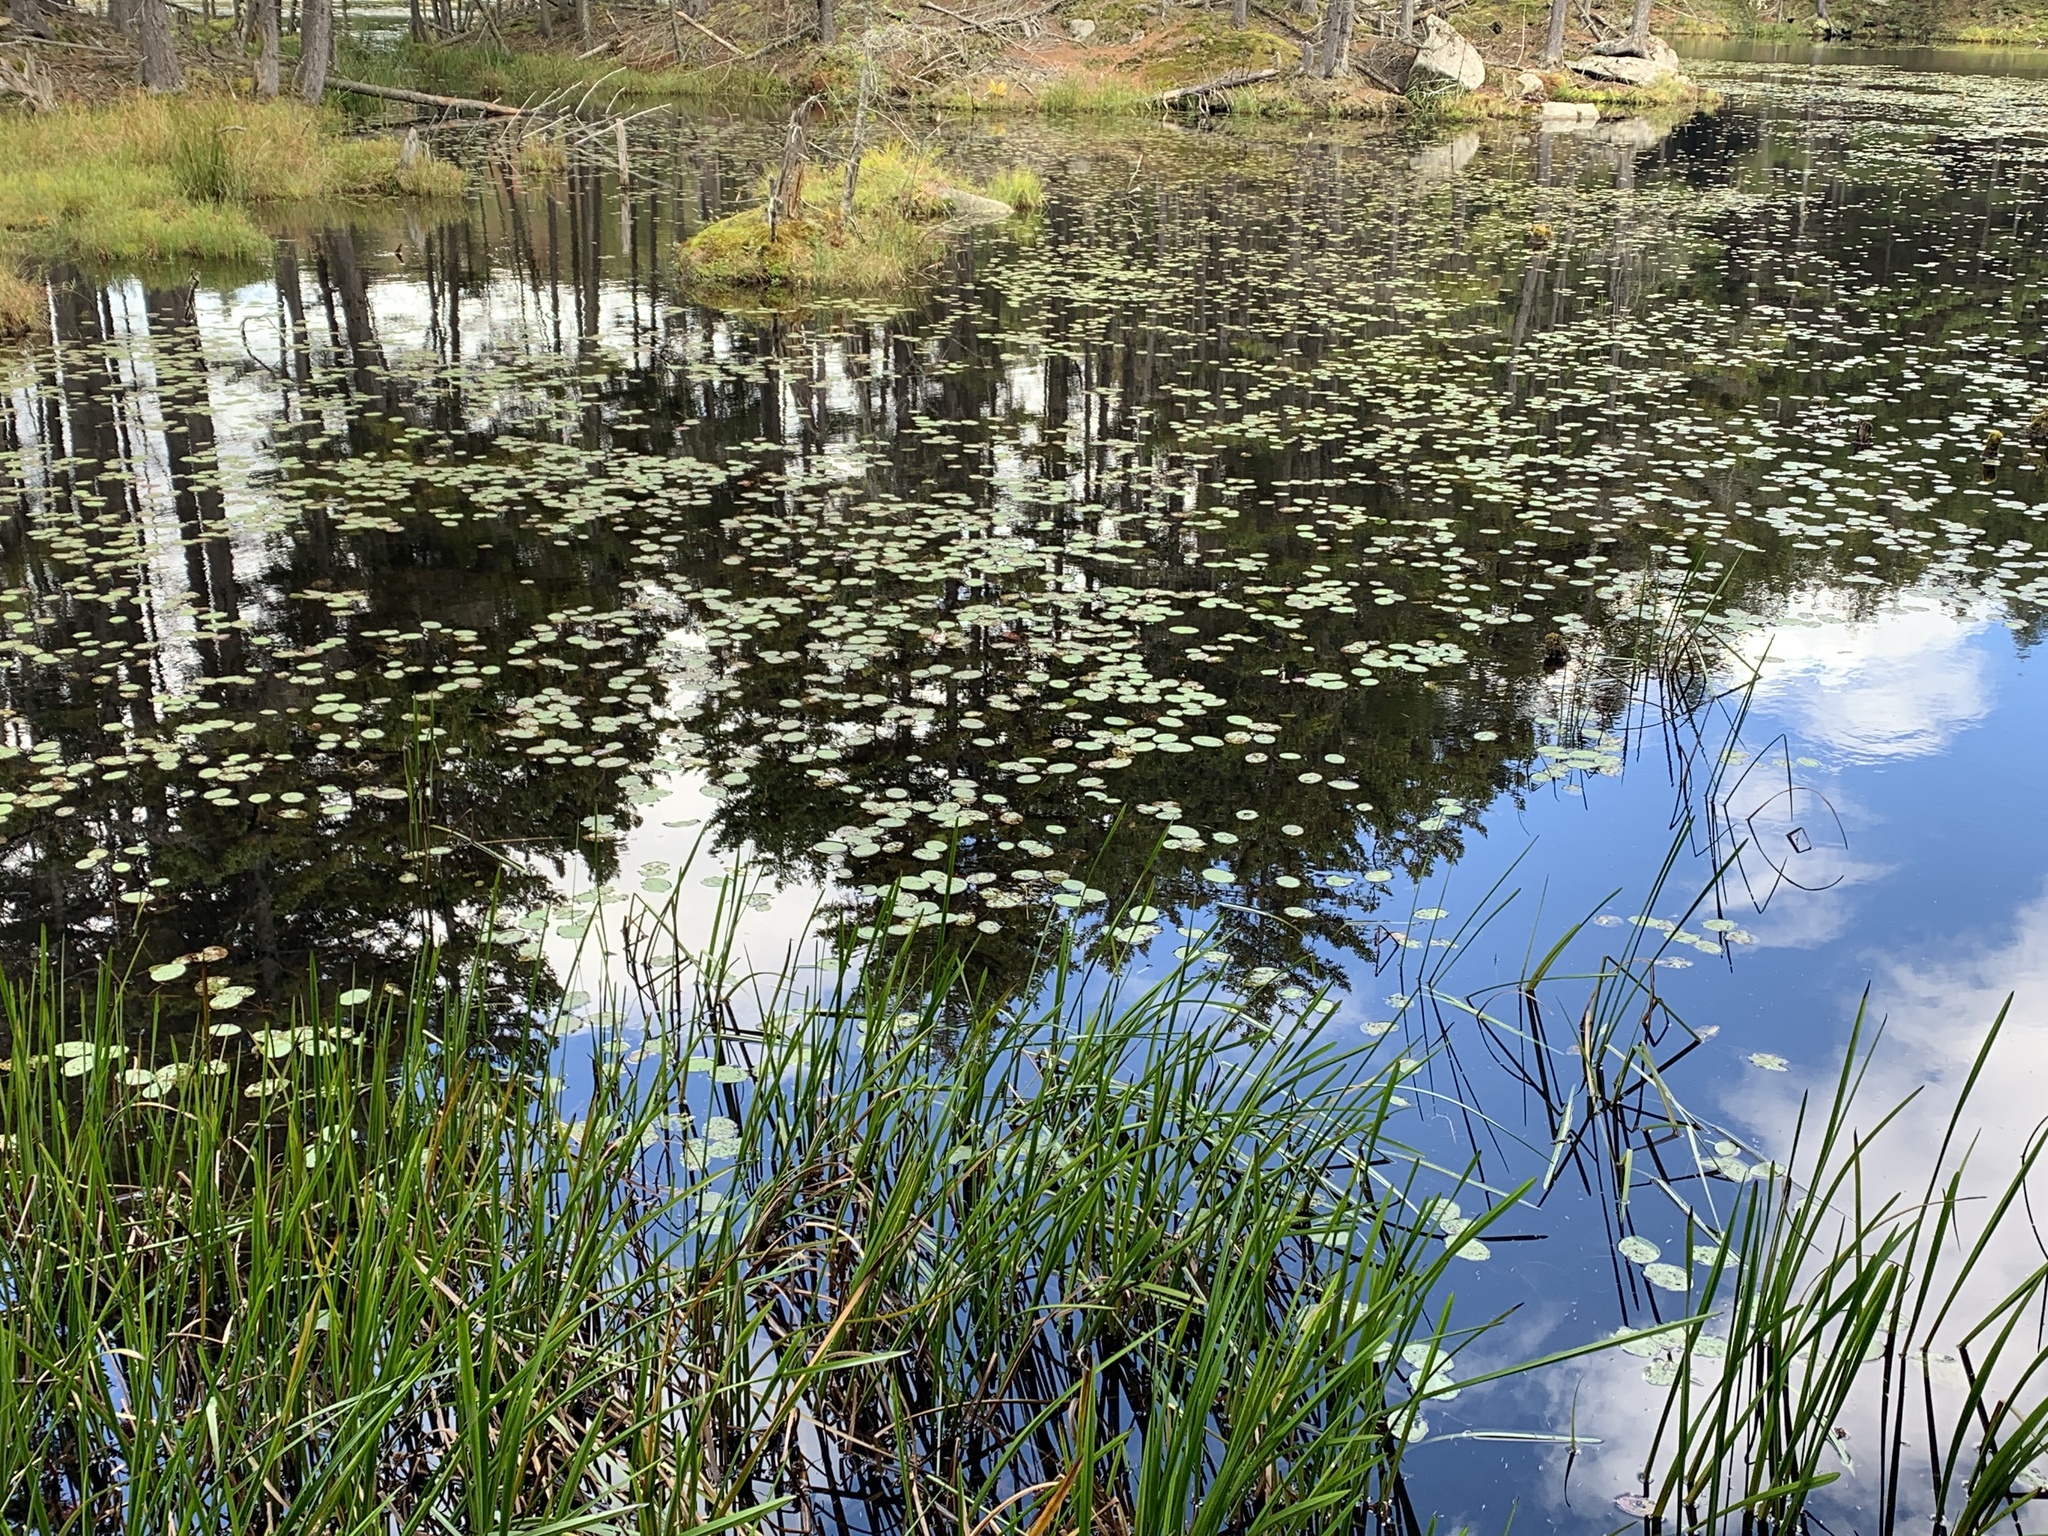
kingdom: Plantae
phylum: Tracheophyta
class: Magnoliopsida
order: Nymphaeales
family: Cabombaceae
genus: Brasenia
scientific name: Brasenia schreberi
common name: Water-shield
